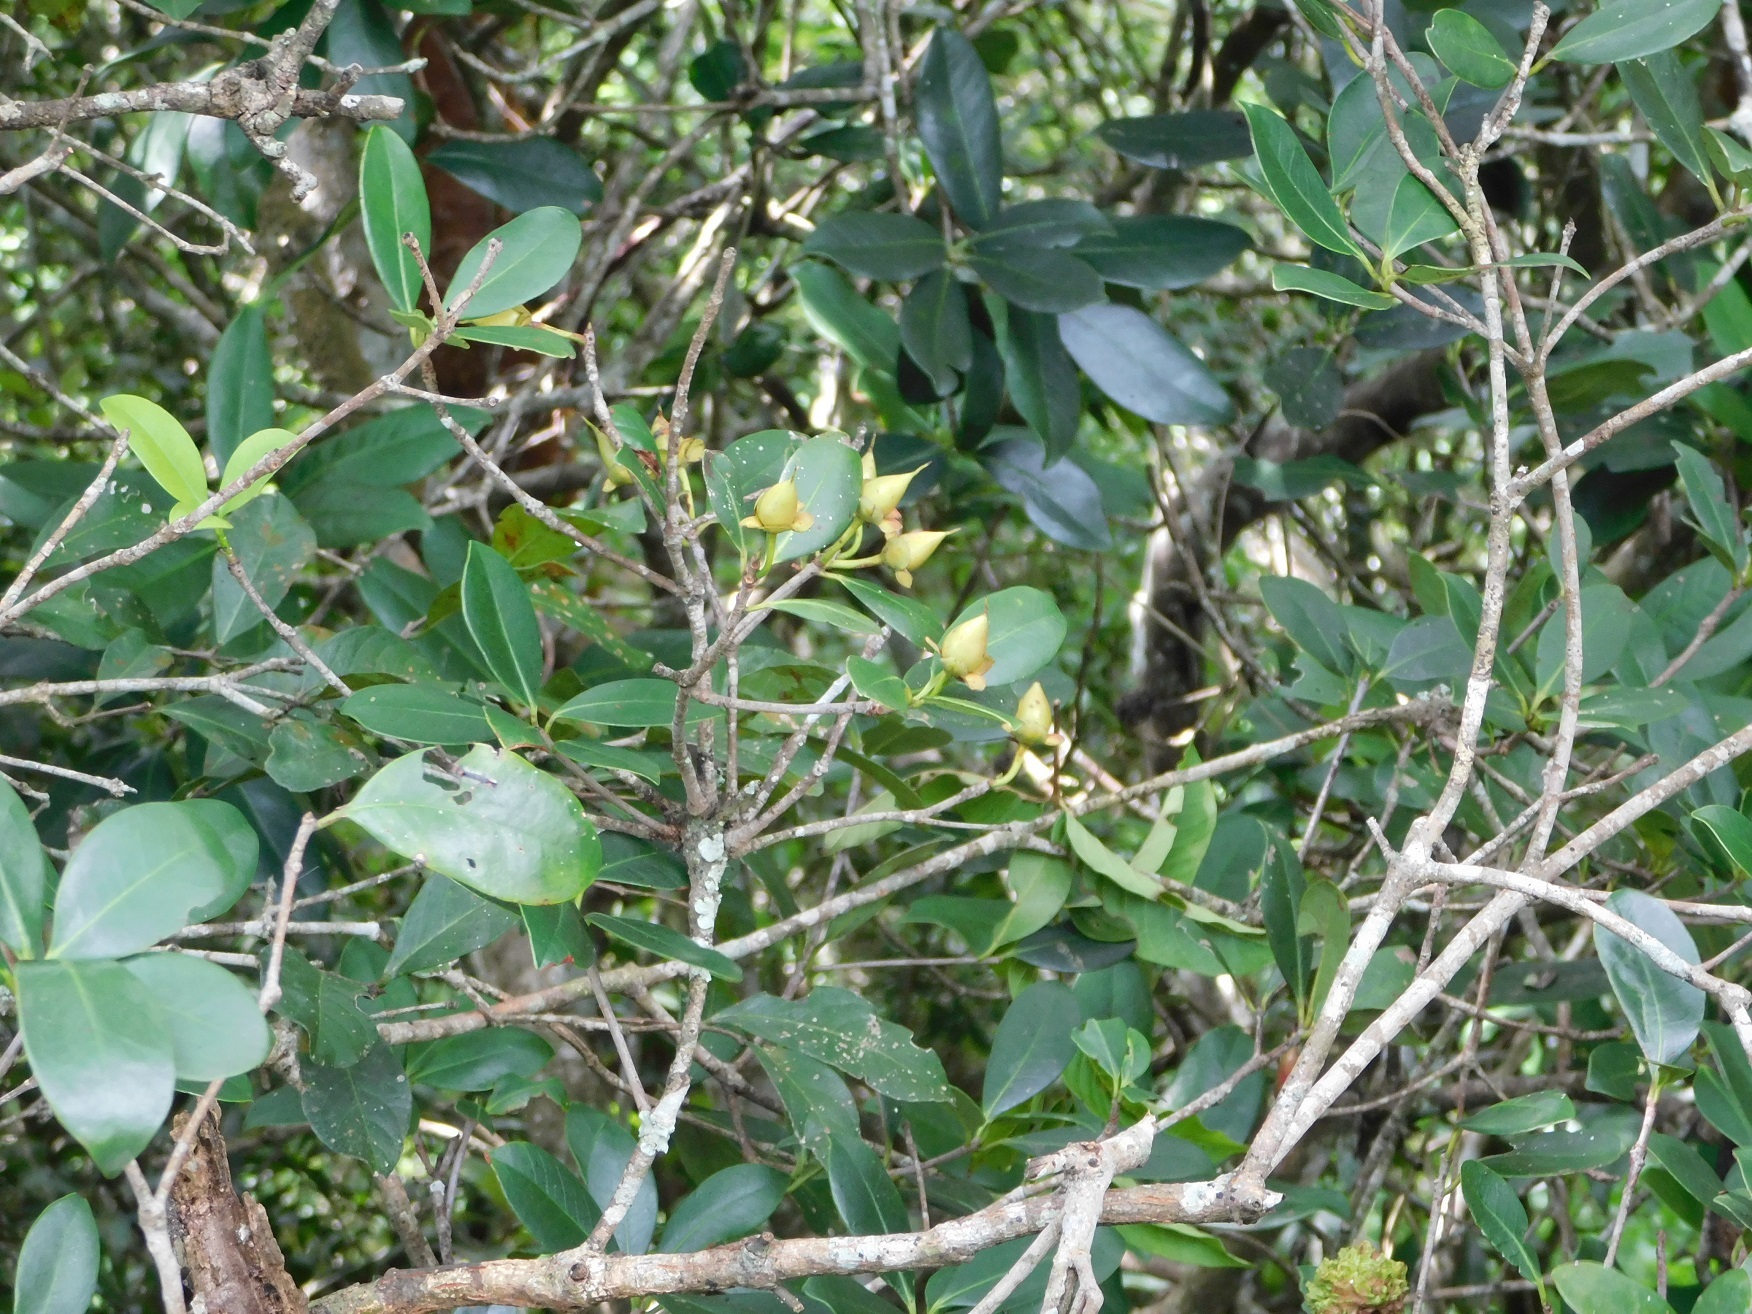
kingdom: Plantae
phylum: Tracheophyta
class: Magnoliopsida
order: Ericales
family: Pentaphylacaceae
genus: Ternstroemia
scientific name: Ternstroemia tepezapote
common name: Copey vera
